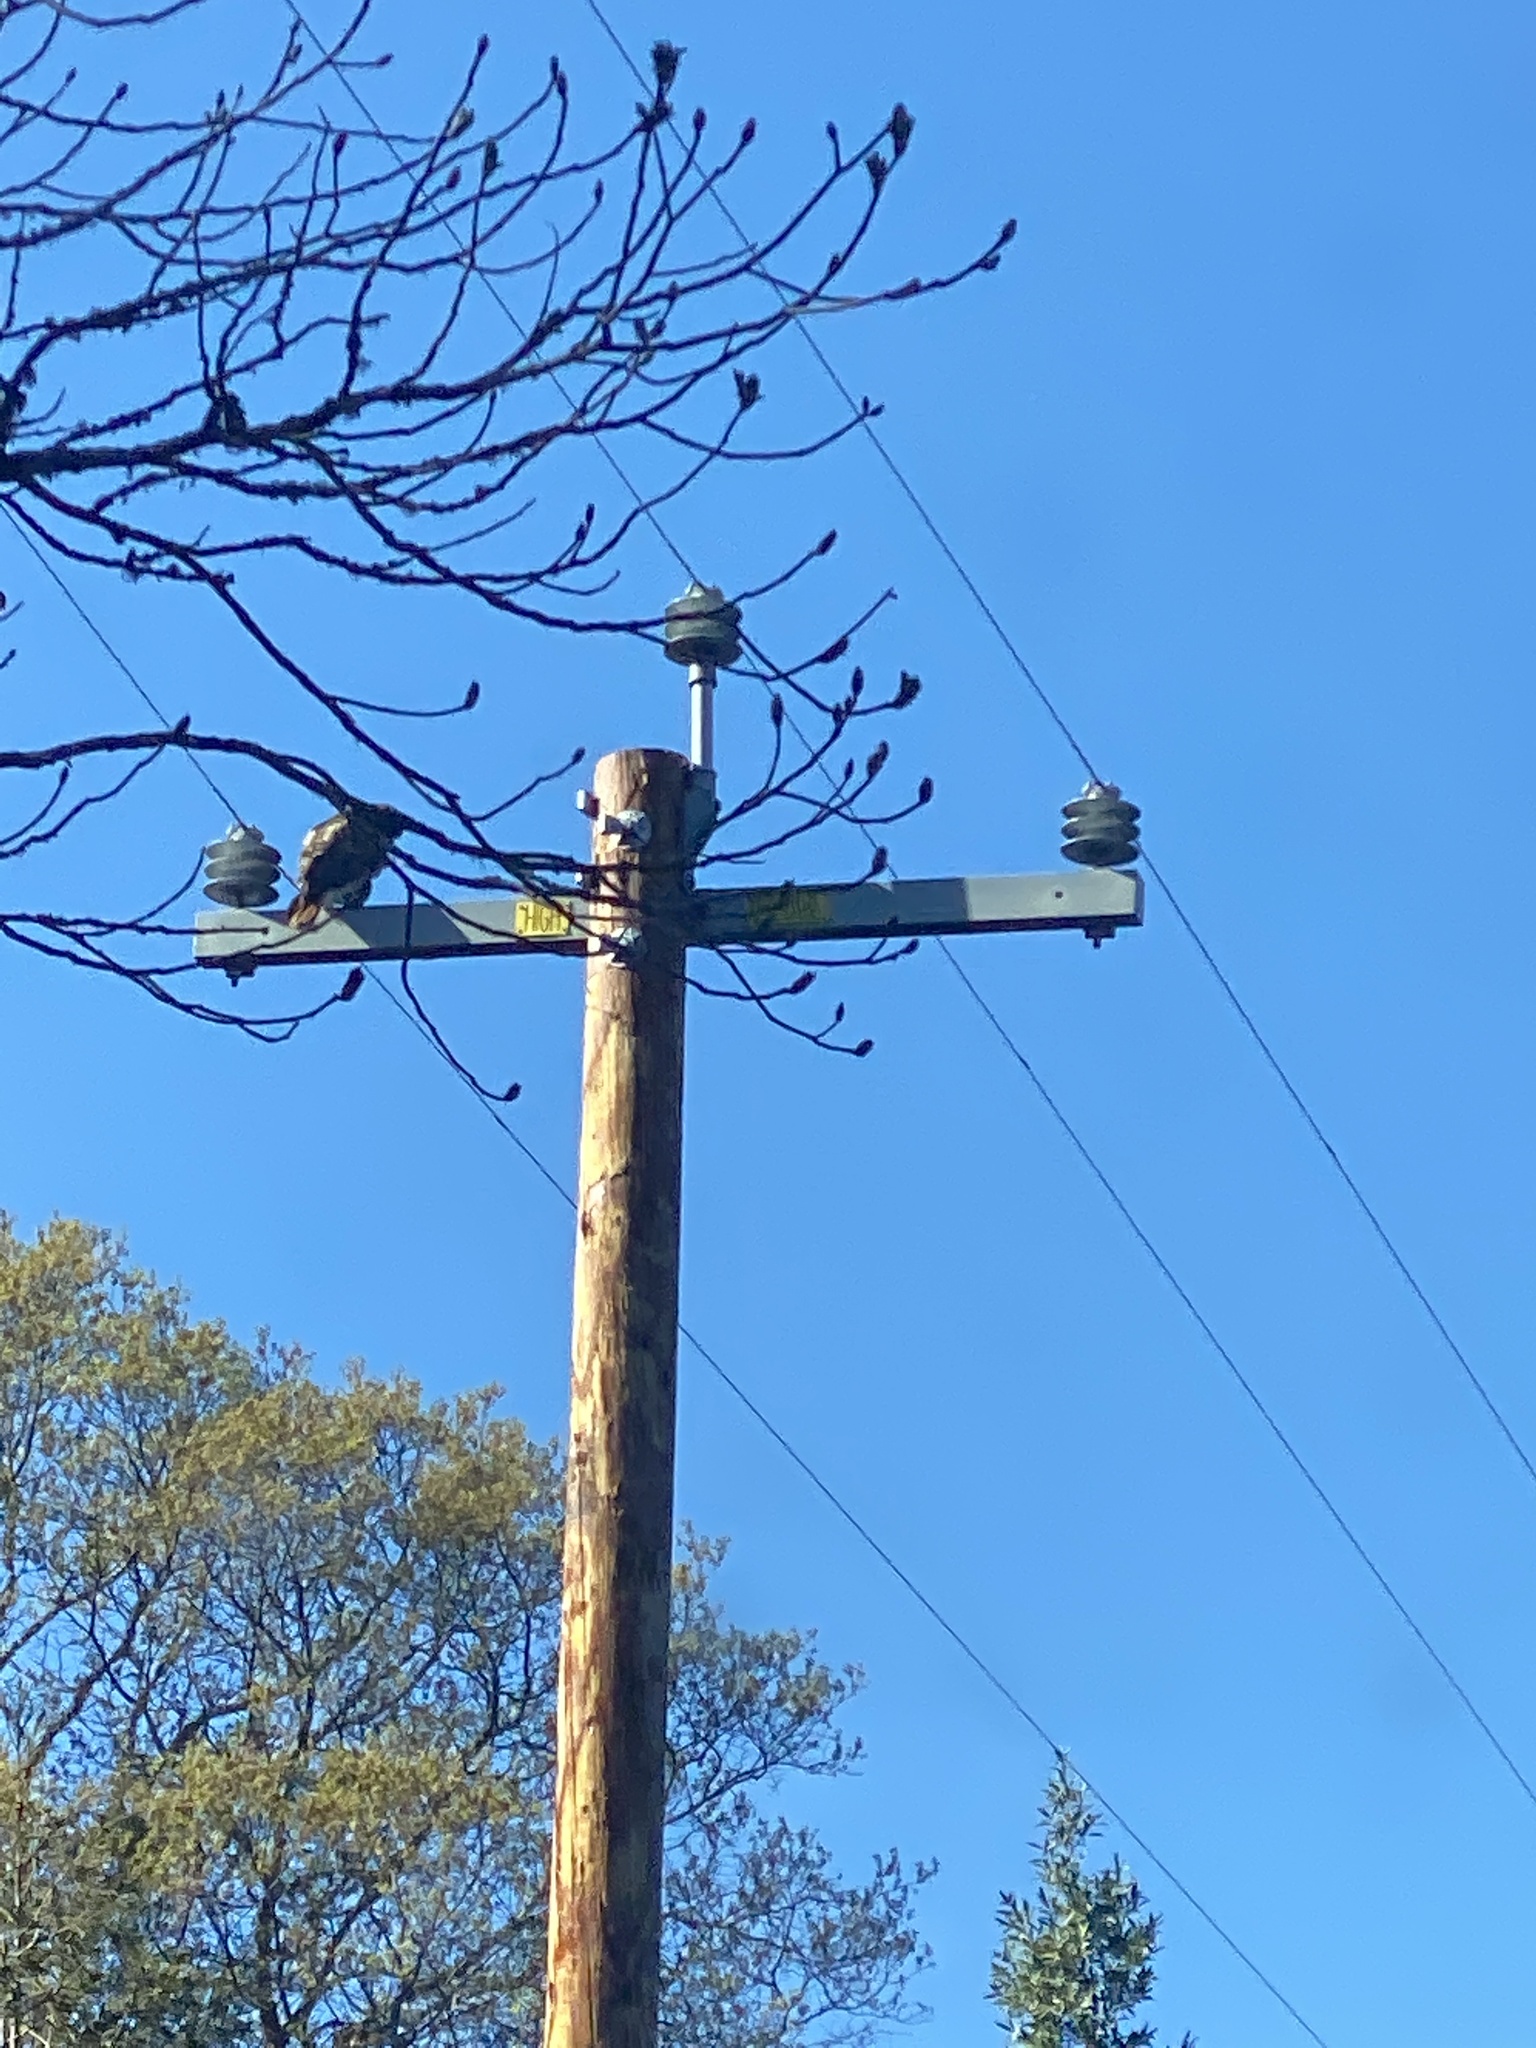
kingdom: Animalia
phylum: Chordata
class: Aves
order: Accipitriformes
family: Accipitridae
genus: Buteo
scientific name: Buteo jamaicensis
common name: Red-tailed hawk
